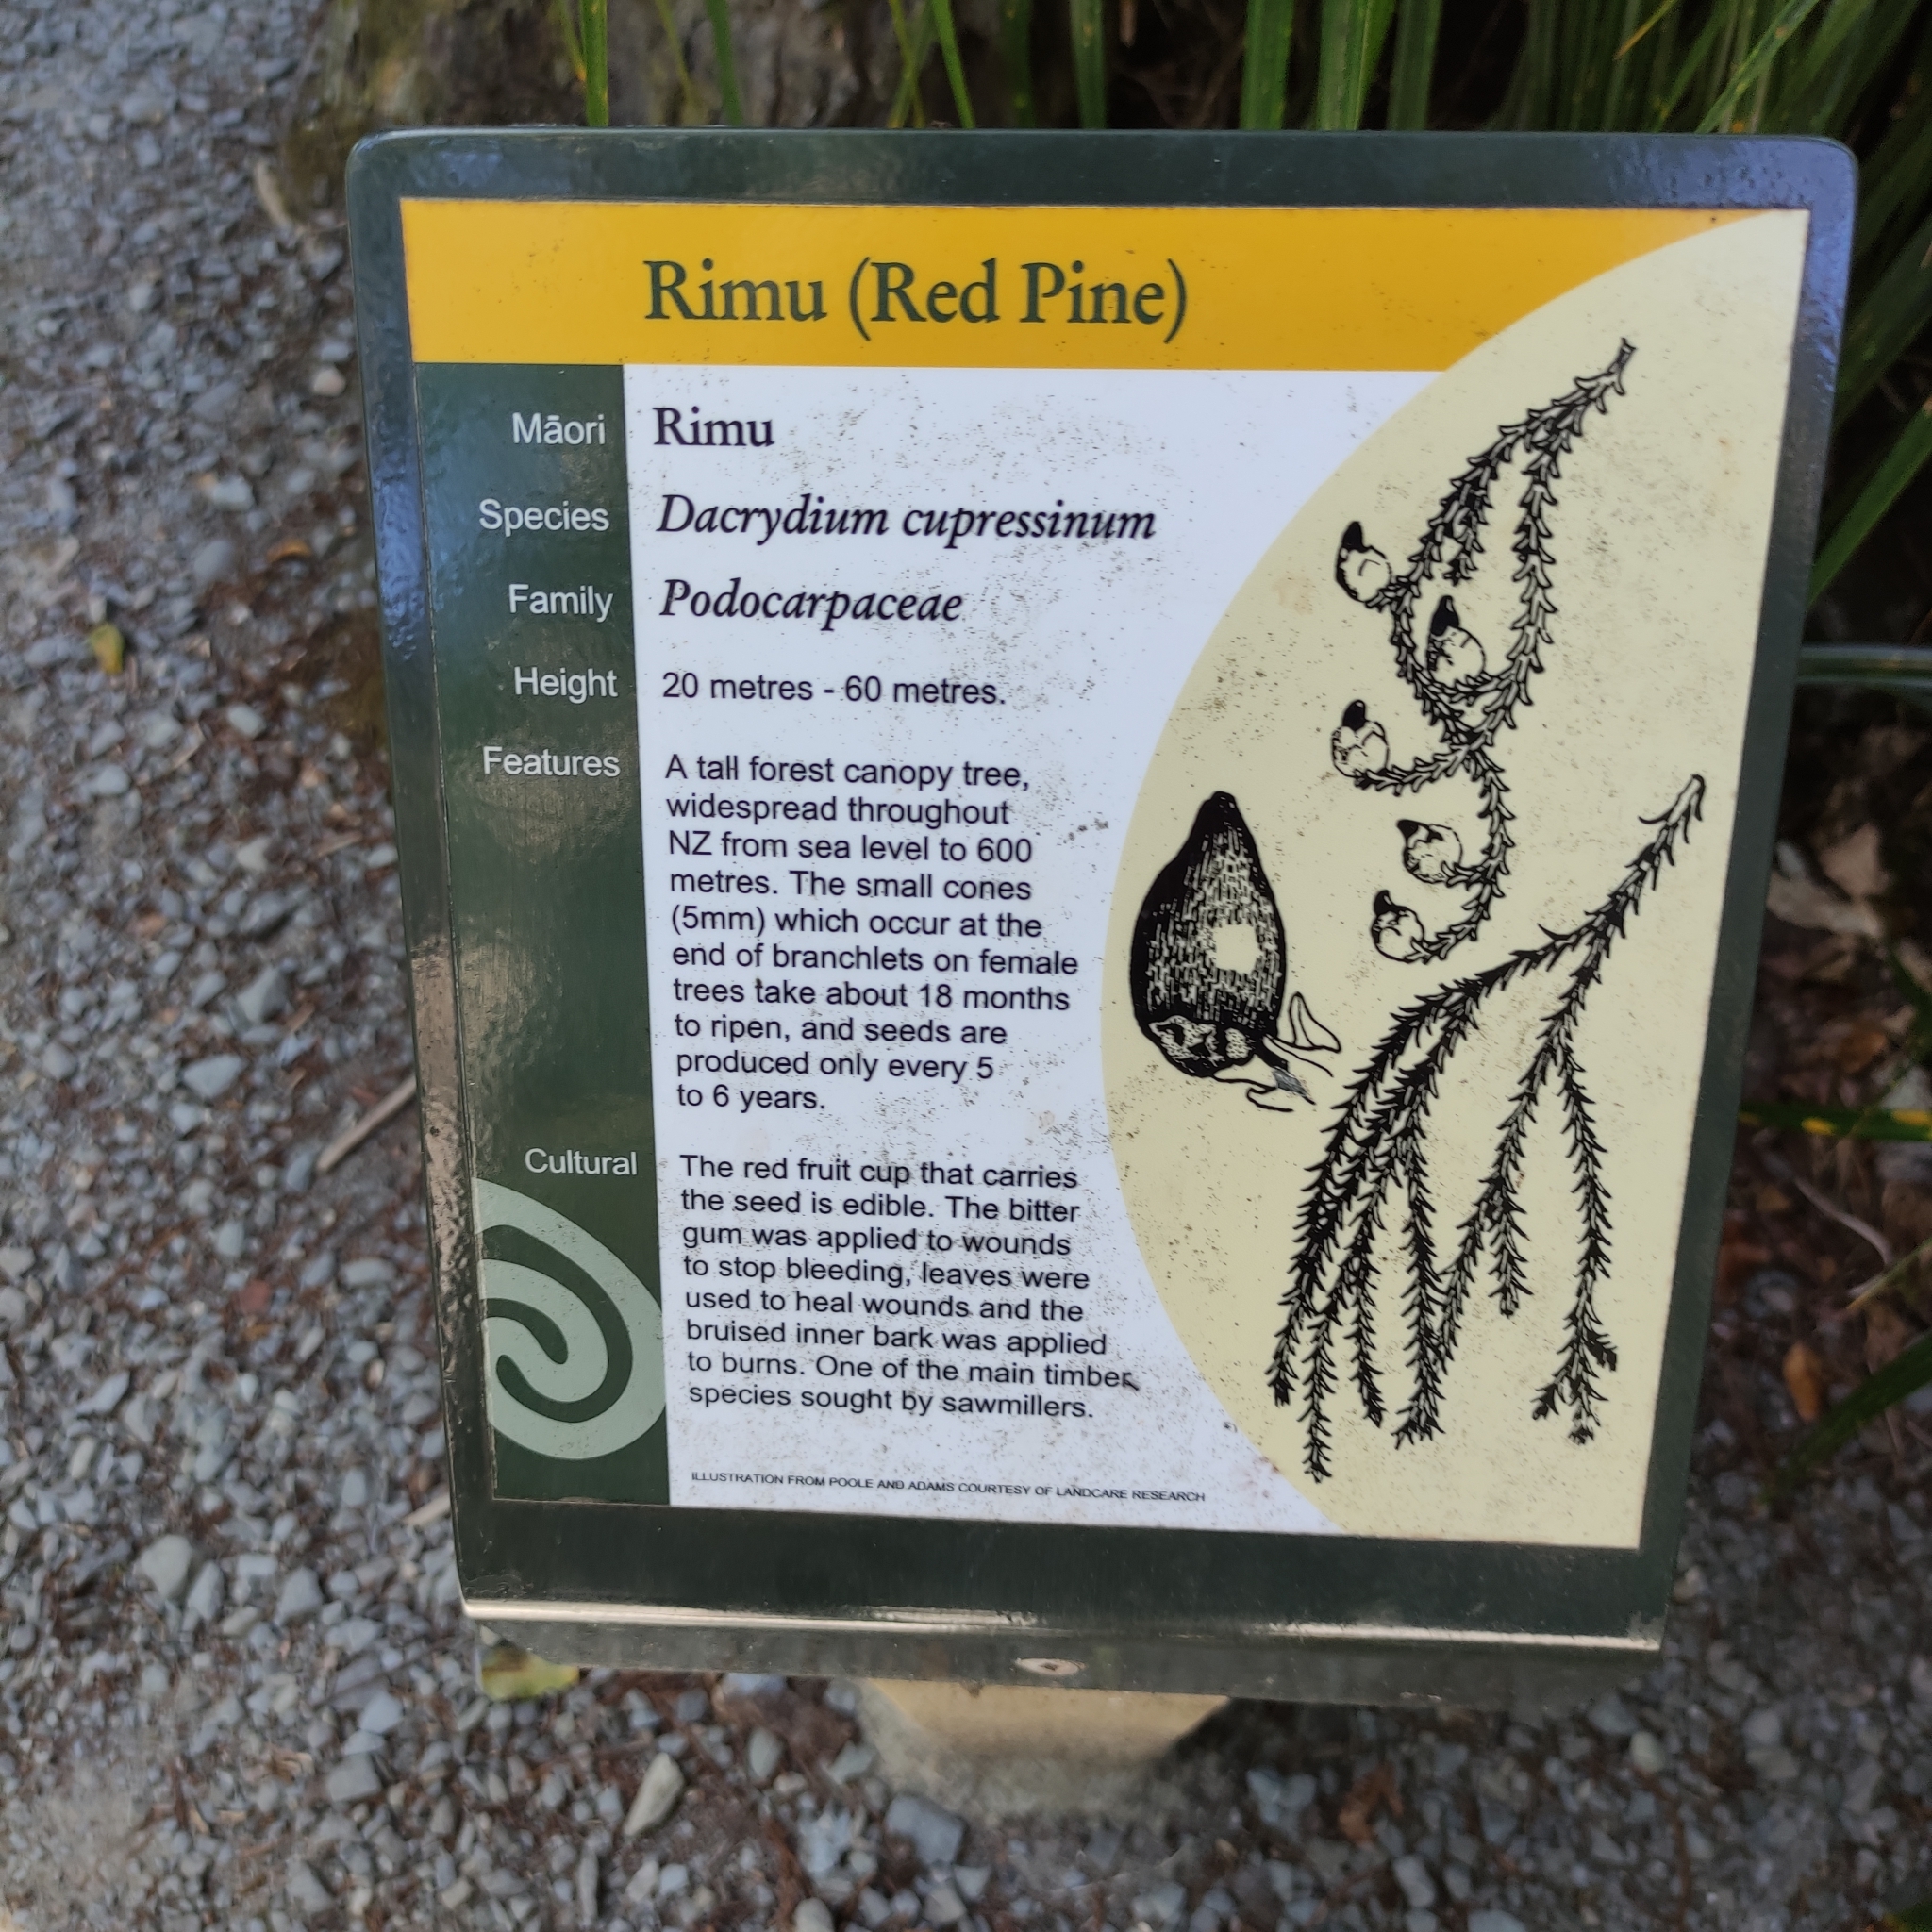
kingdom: Plantae
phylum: Tracheophyta
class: Pinopsida
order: Pinales
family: Podocarpaceae
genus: Dacrydium
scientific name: Dacrydium cupressinum
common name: Red pine
